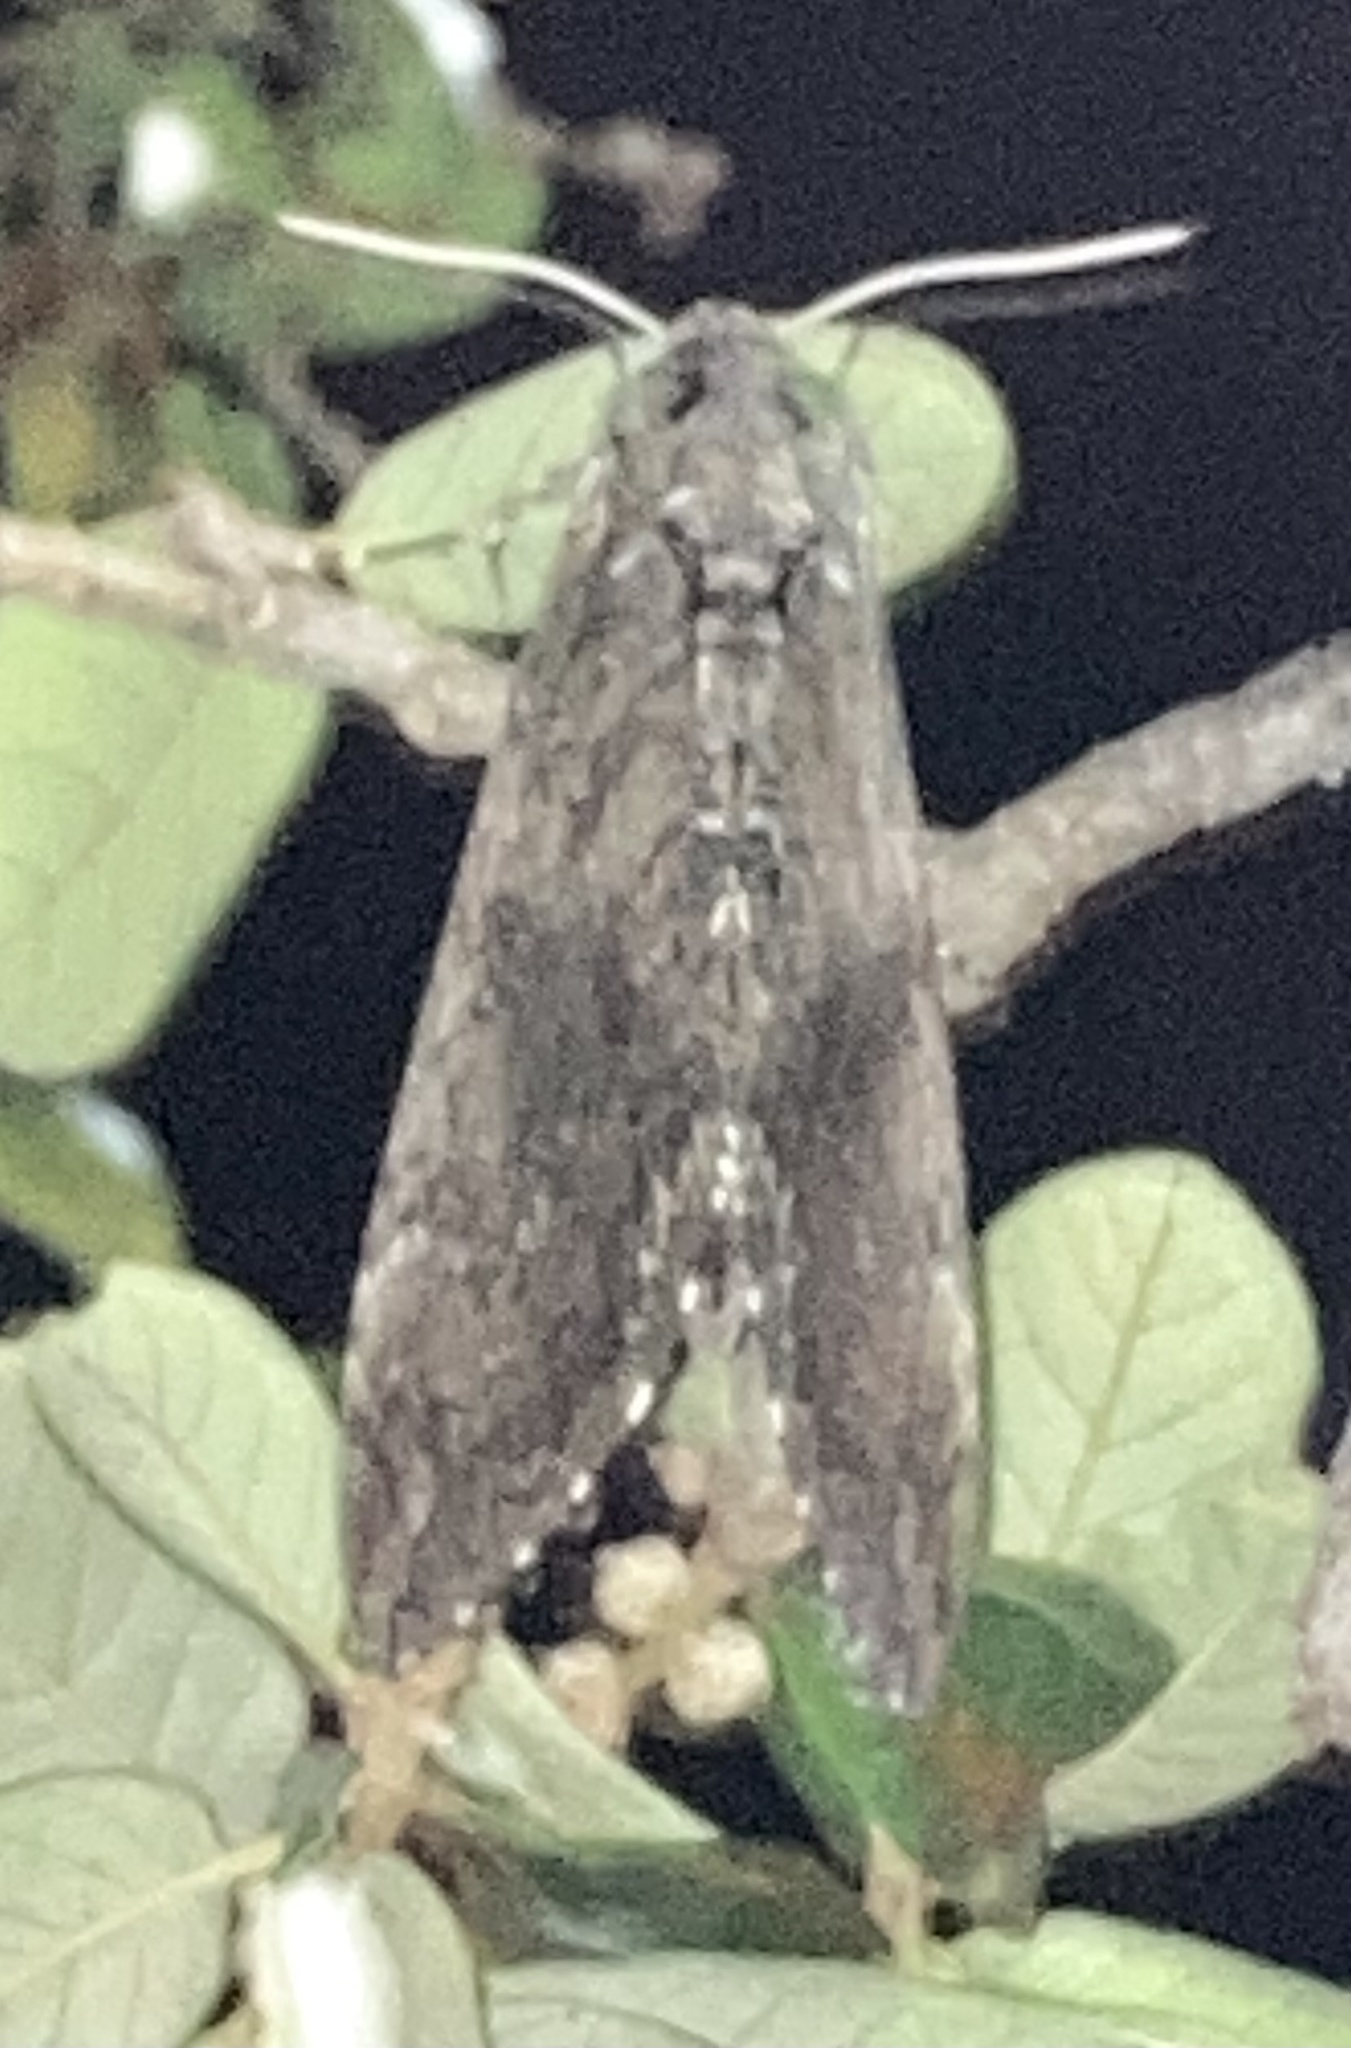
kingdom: Animalia
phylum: Arthropoda
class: Insecta
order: Lepidoptera
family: Sphingidae
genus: Manduca
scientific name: Manduca sexta
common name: Carolina sphinx
